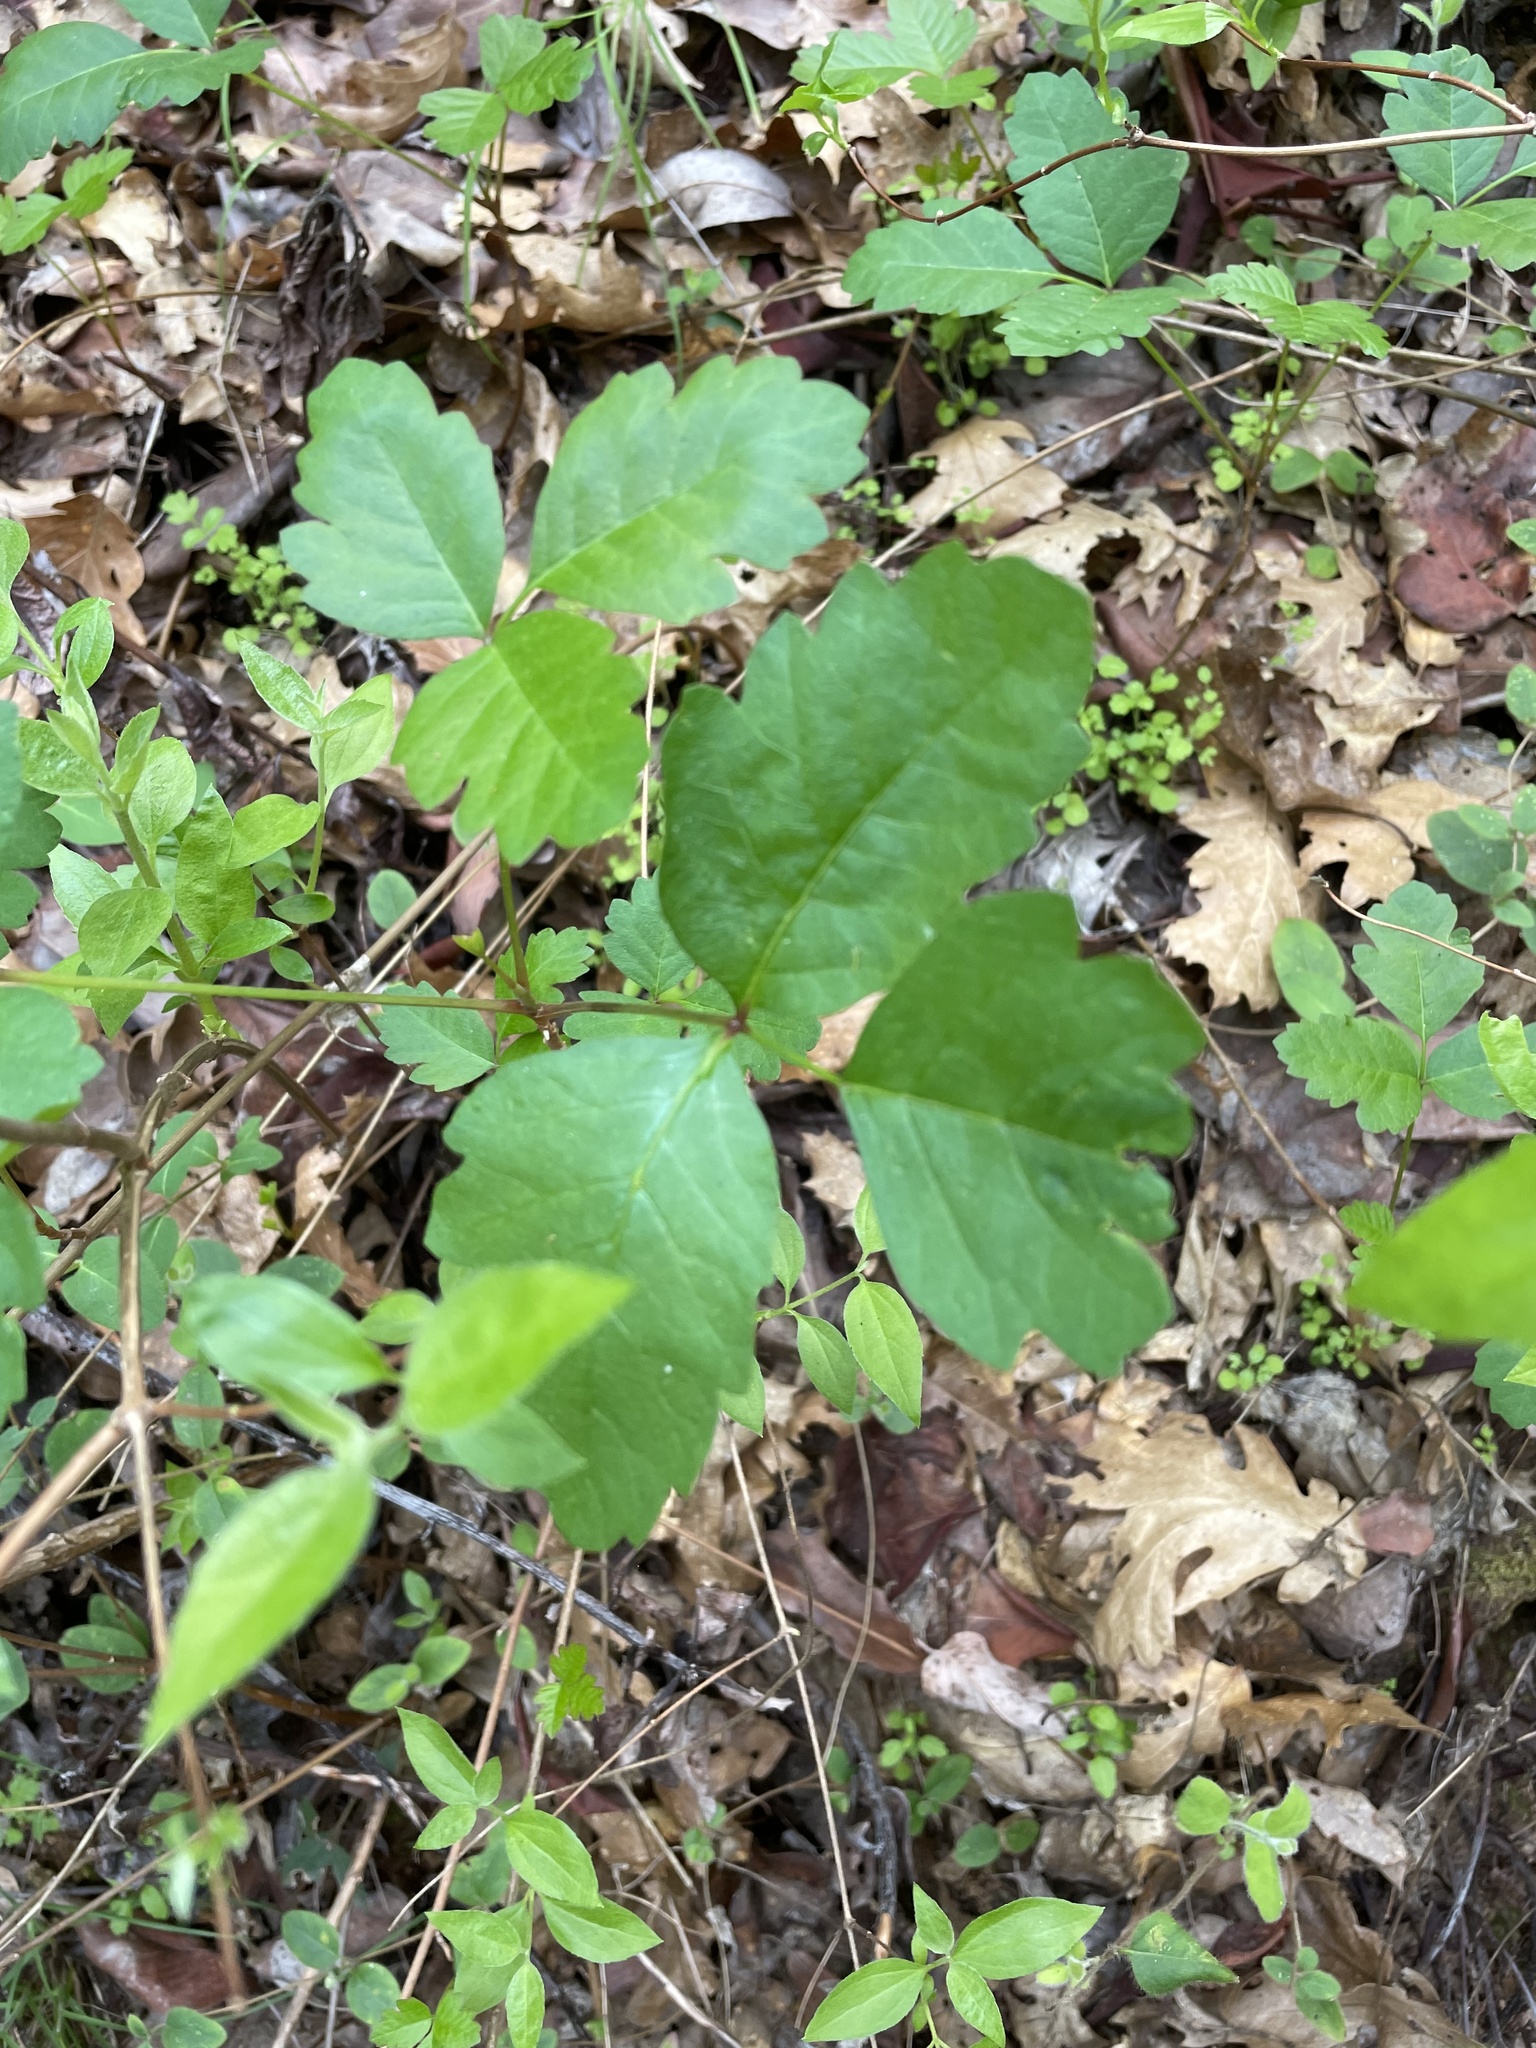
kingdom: Plantae
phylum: Tracheophyta
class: Magnoliopsida
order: Sapindales
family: Anacardiaceae
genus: Toxicodendron
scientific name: Toxicodendron diversilobum
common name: Pacific poison-oak
